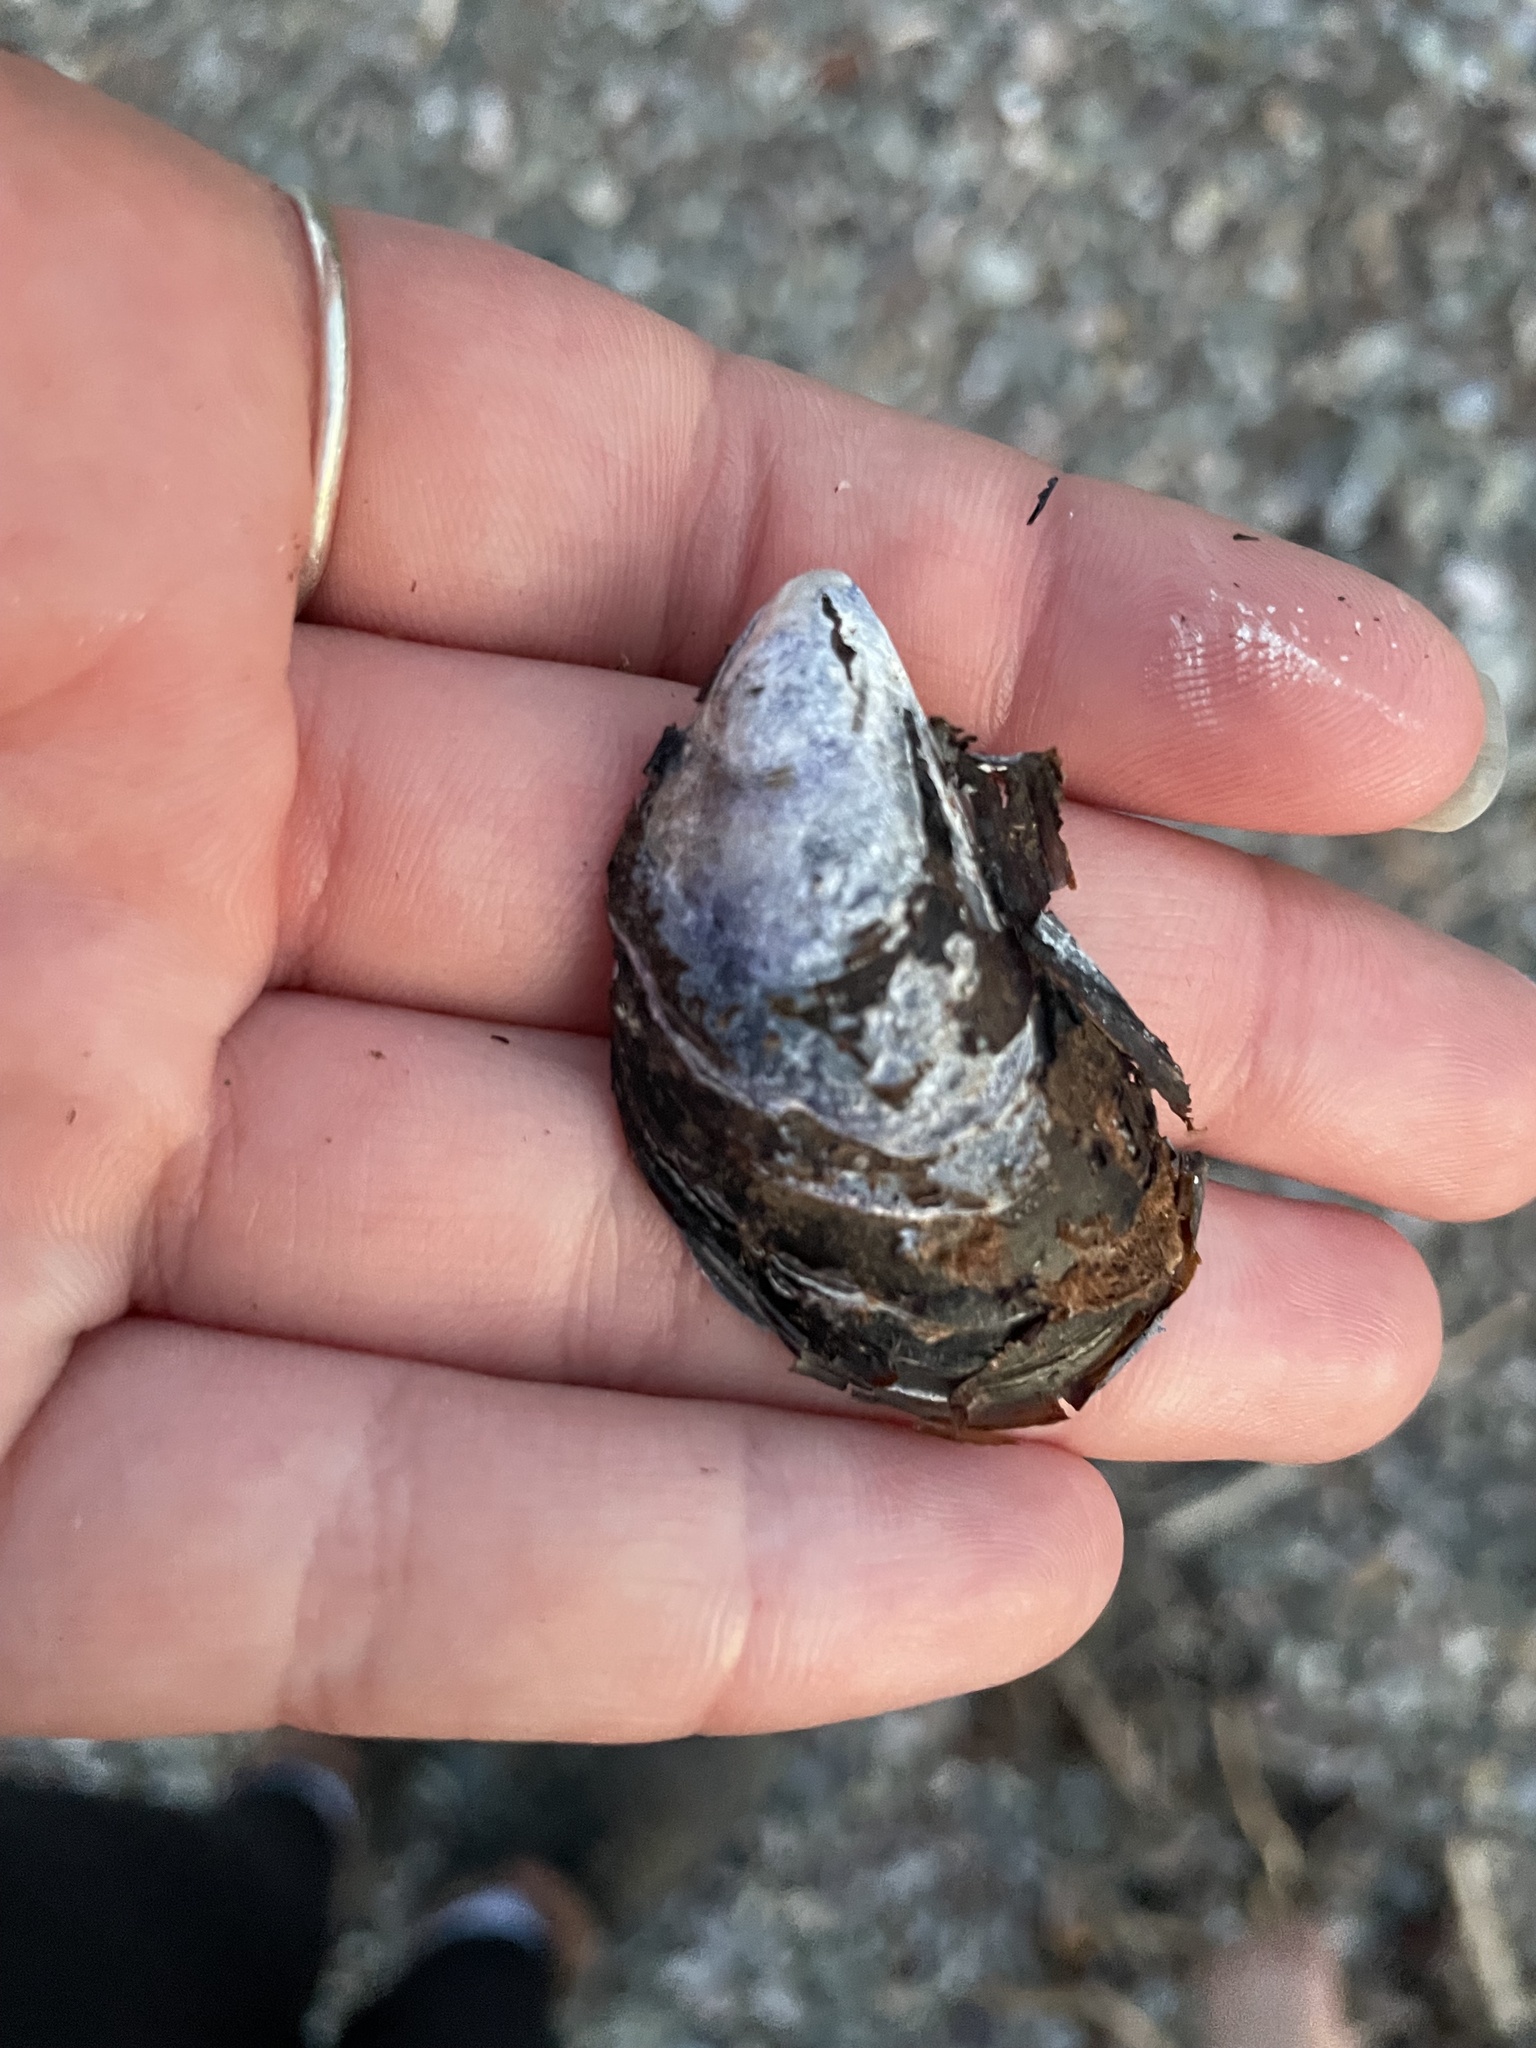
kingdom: Animalia
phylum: Mollusca
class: Bivalvia
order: Mytilida
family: Mytilidae
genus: Mytilus
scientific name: Mytilus edulis
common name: Blue mussel
